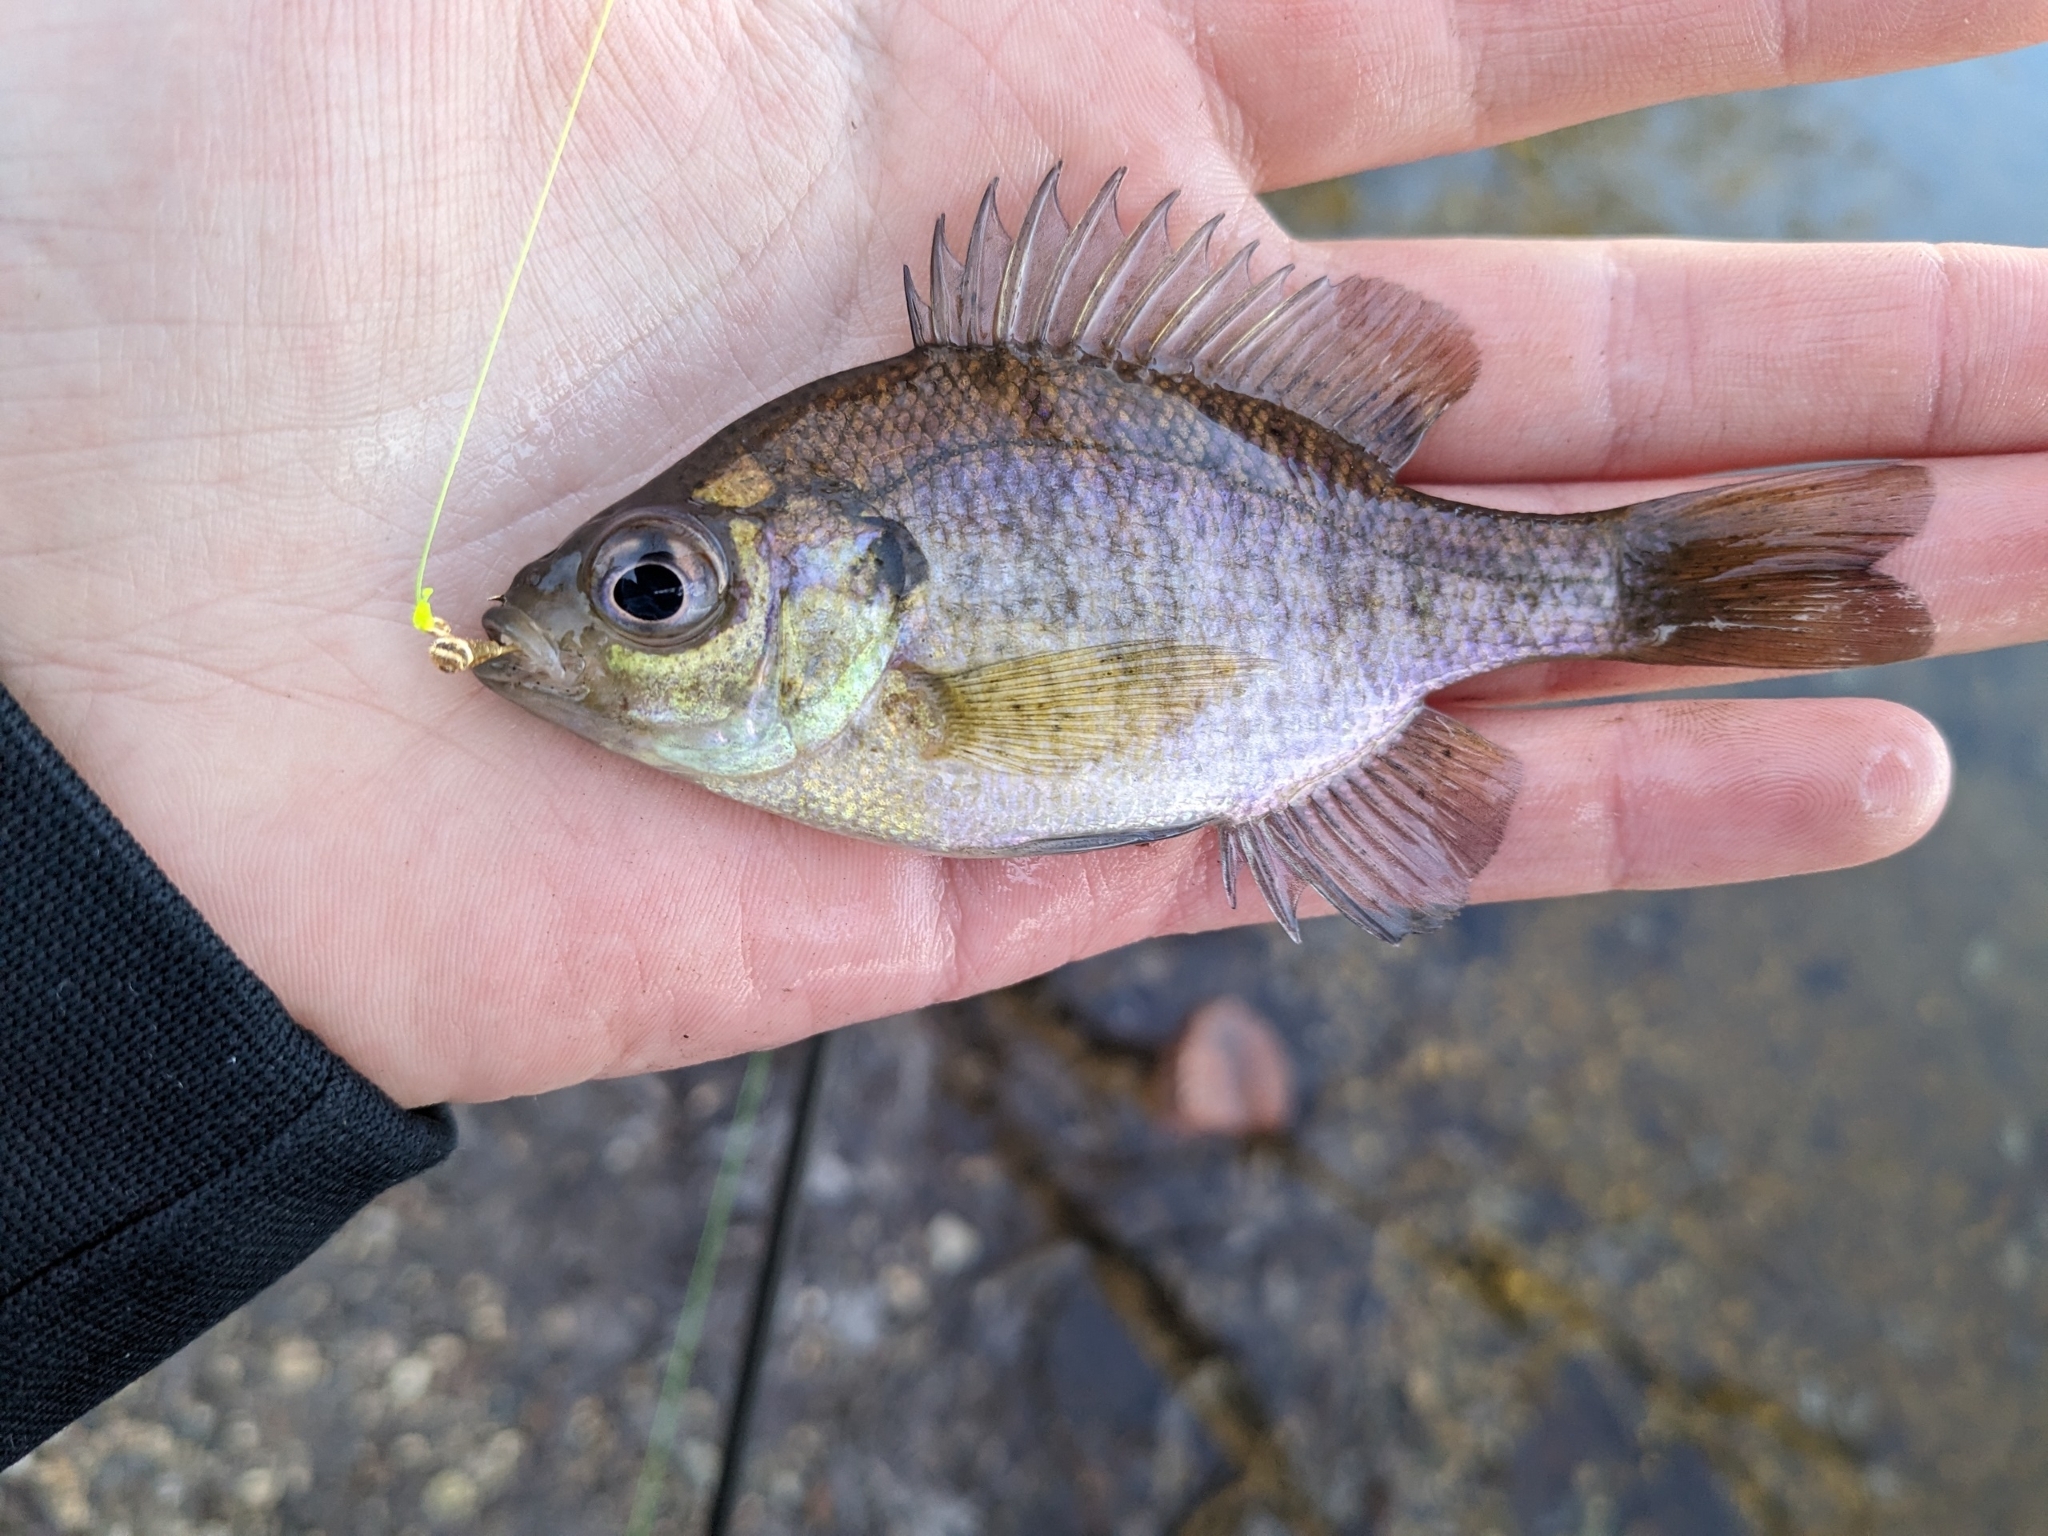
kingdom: Animalia
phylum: Chordata
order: Perciformes
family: Centrarchidae
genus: Lepomis
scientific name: Lepomis macrochirus
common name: Bluegill
